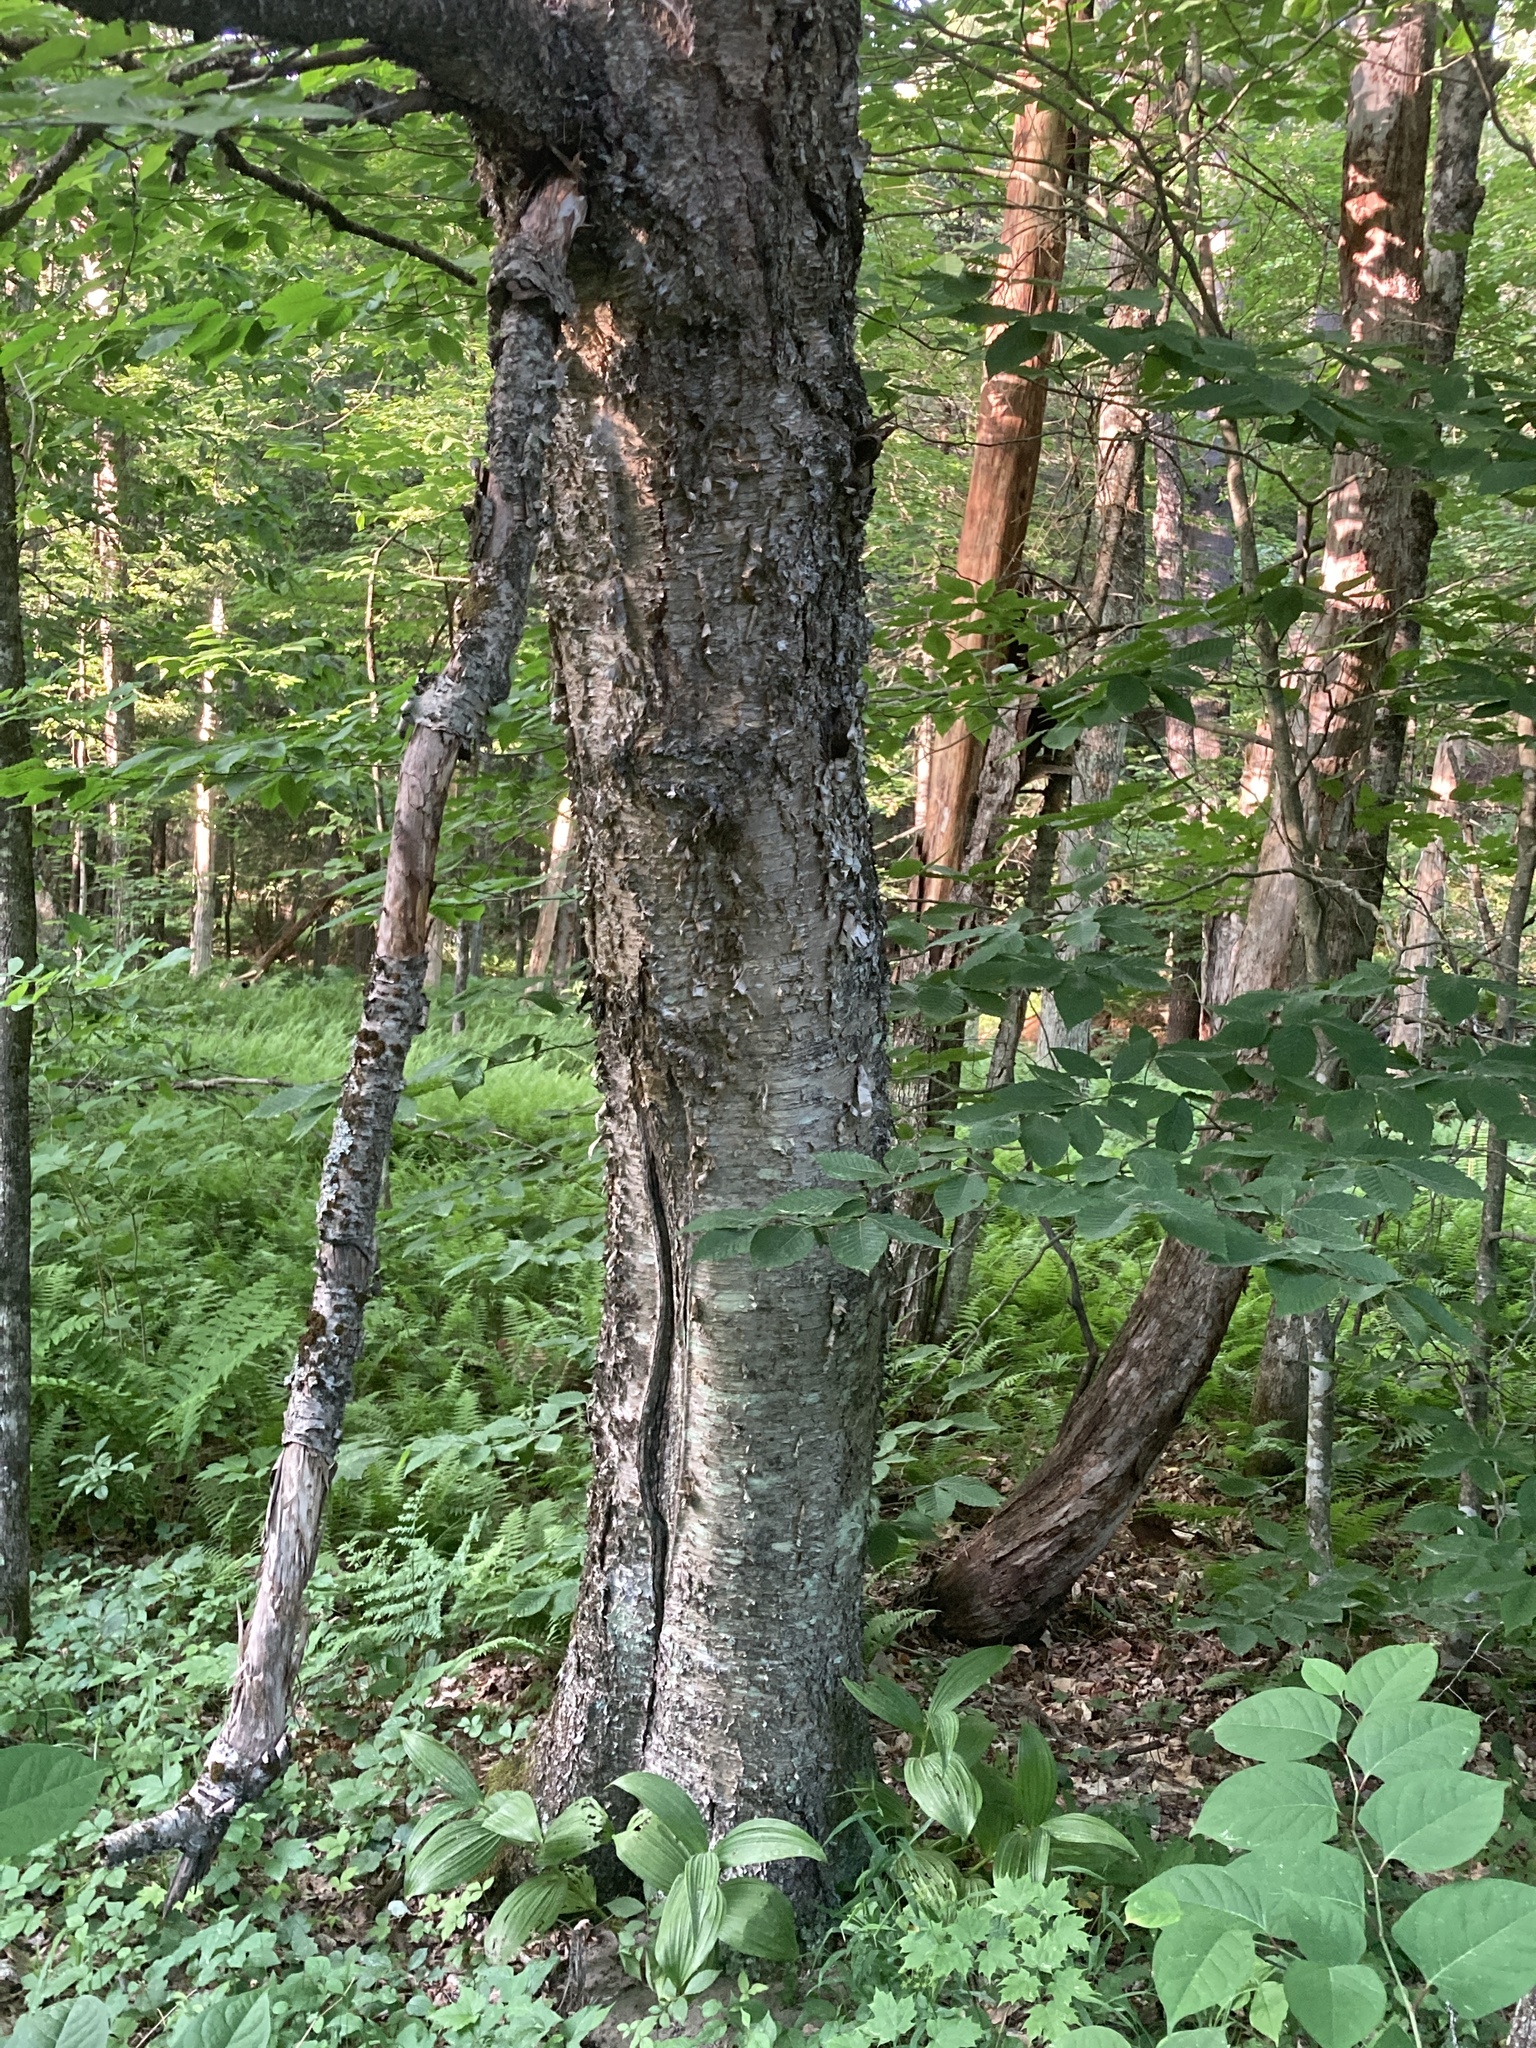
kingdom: Plantae
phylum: Tracheophyta
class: Magnoliopsida
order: Fagales
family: Betulaceae
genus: Betula
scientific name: Betula alleghaniensis
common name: Yellow birch
